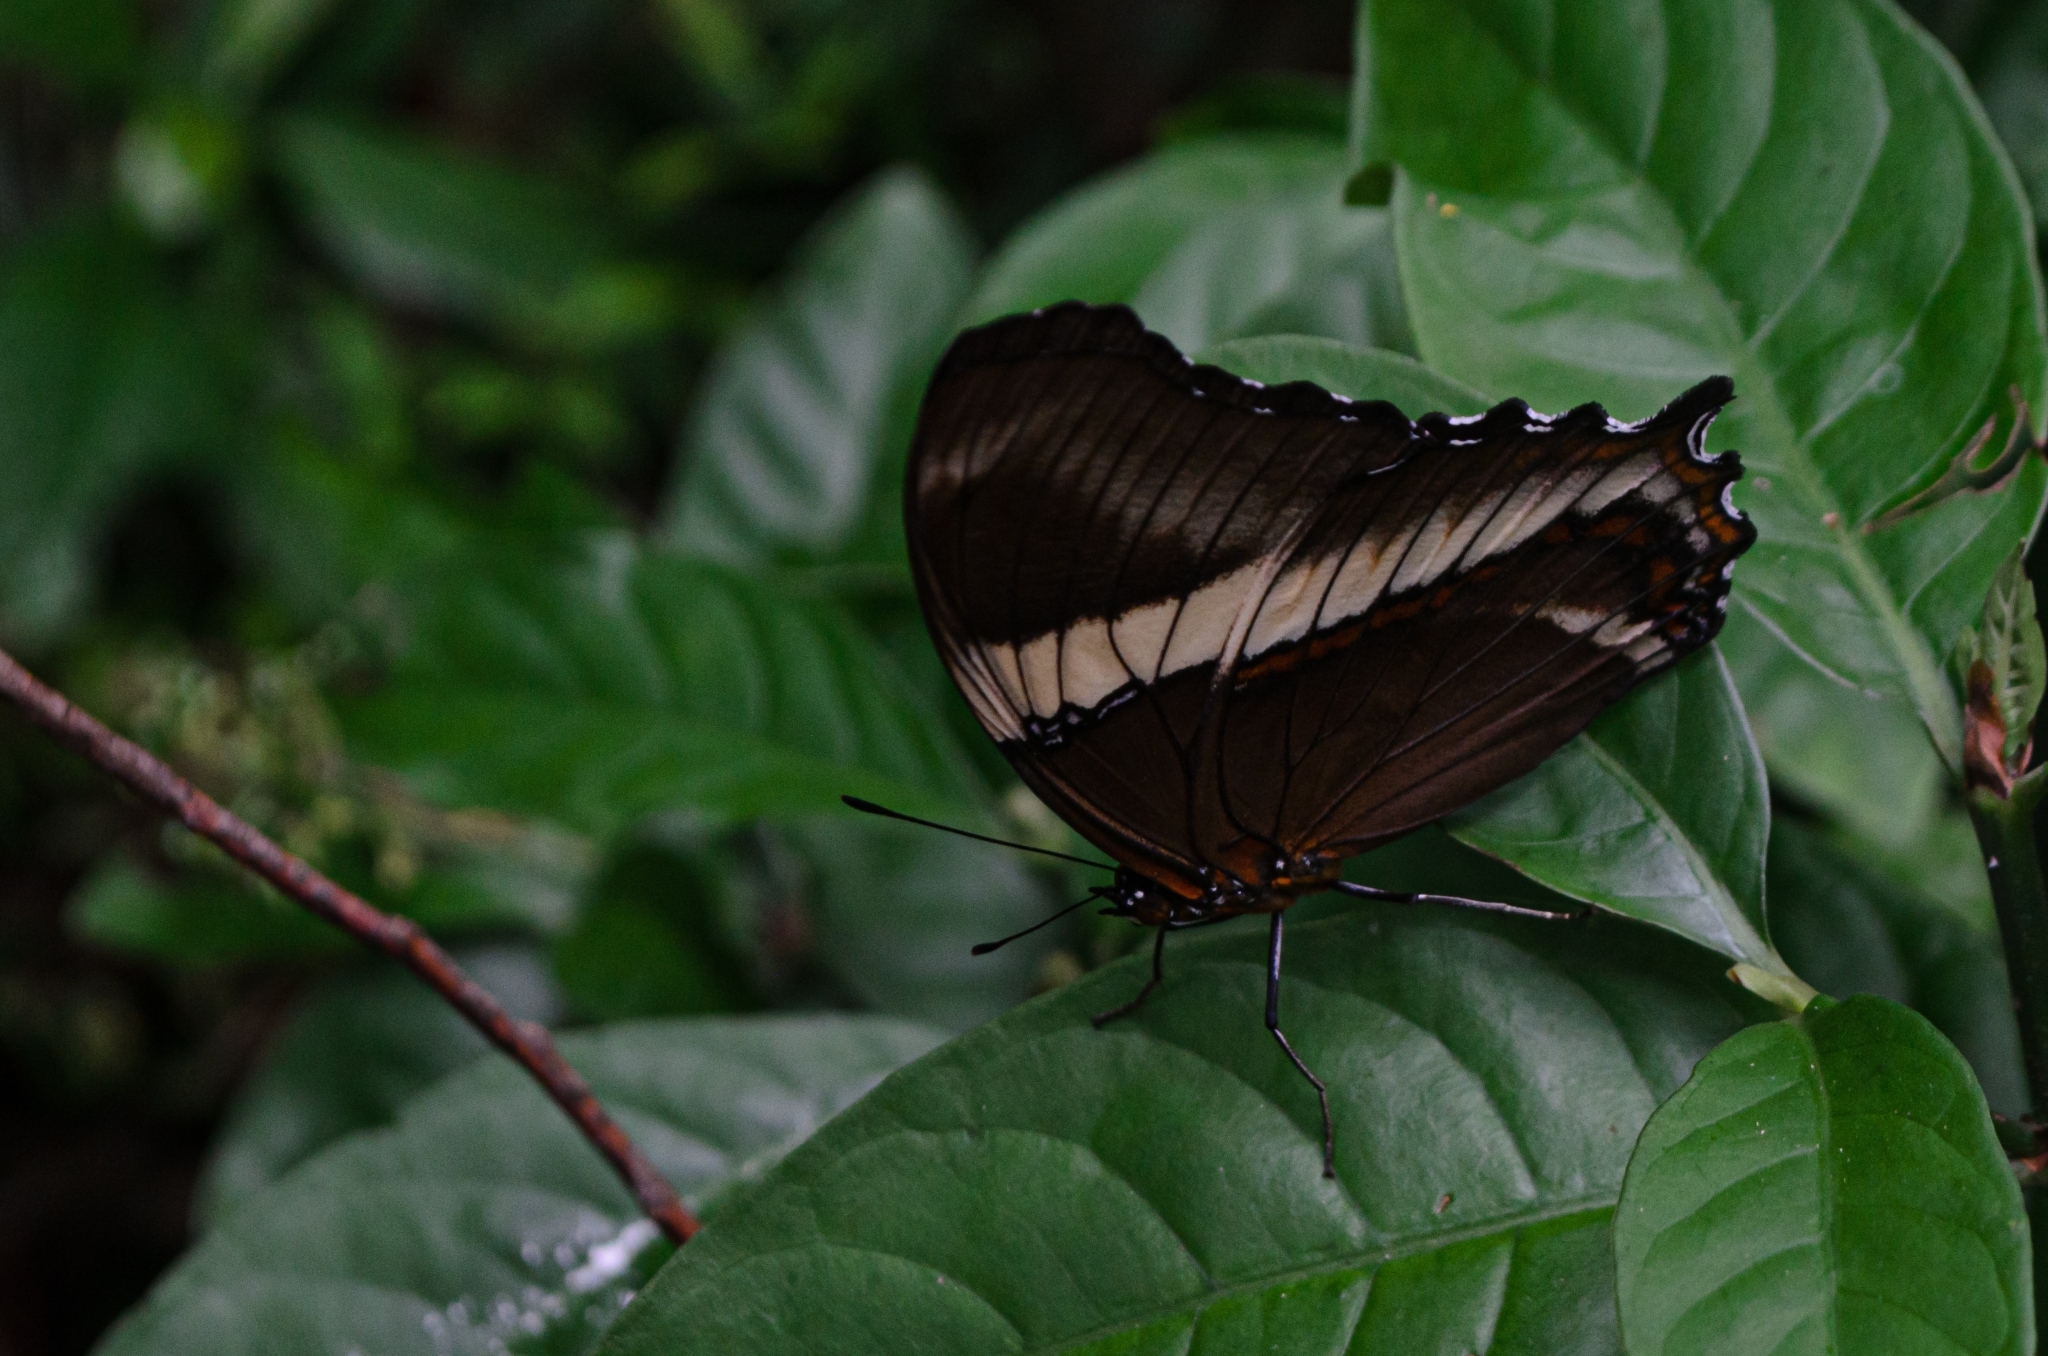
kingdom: Animalia
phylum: Arthropoda
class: Insecta
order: Lepidoptera
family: Nymphalidae
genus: Siproeta
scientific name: Siproeta epaphus
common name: Rusty-tipped page
